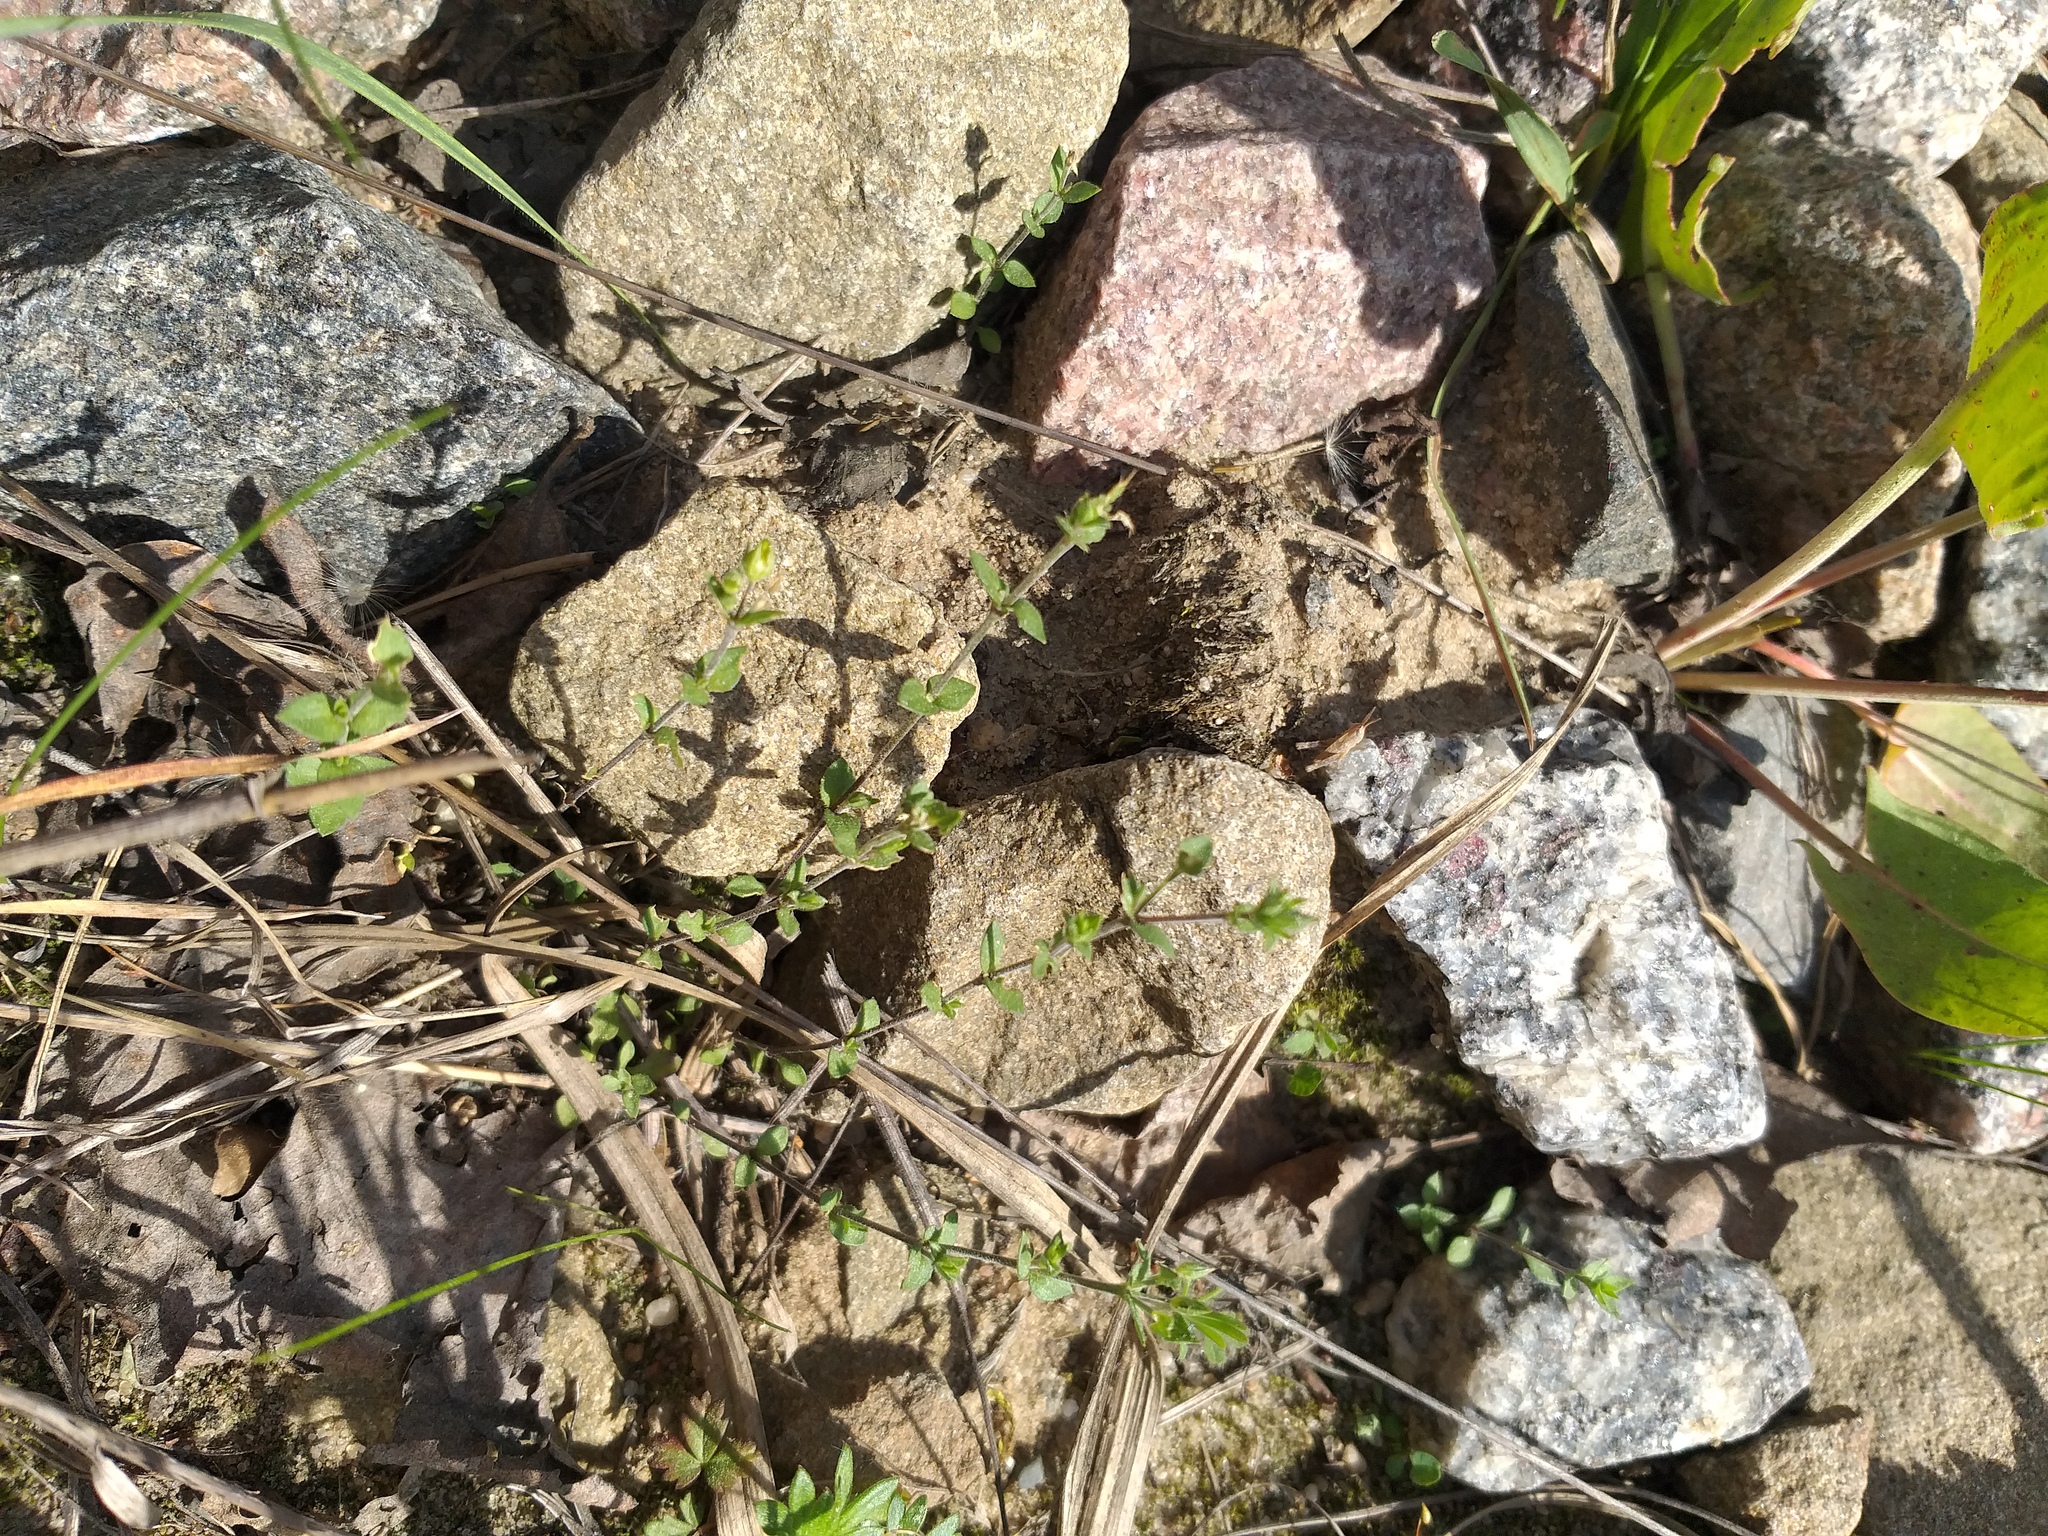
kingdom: Plantae
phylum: Tracheophyta
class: Magnoliopsida
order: Caryophyllales
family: Caryophyllaceae
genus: Arenaria
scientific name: Arenaria serpyllifolia
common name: Thyme-leaved sandwort
